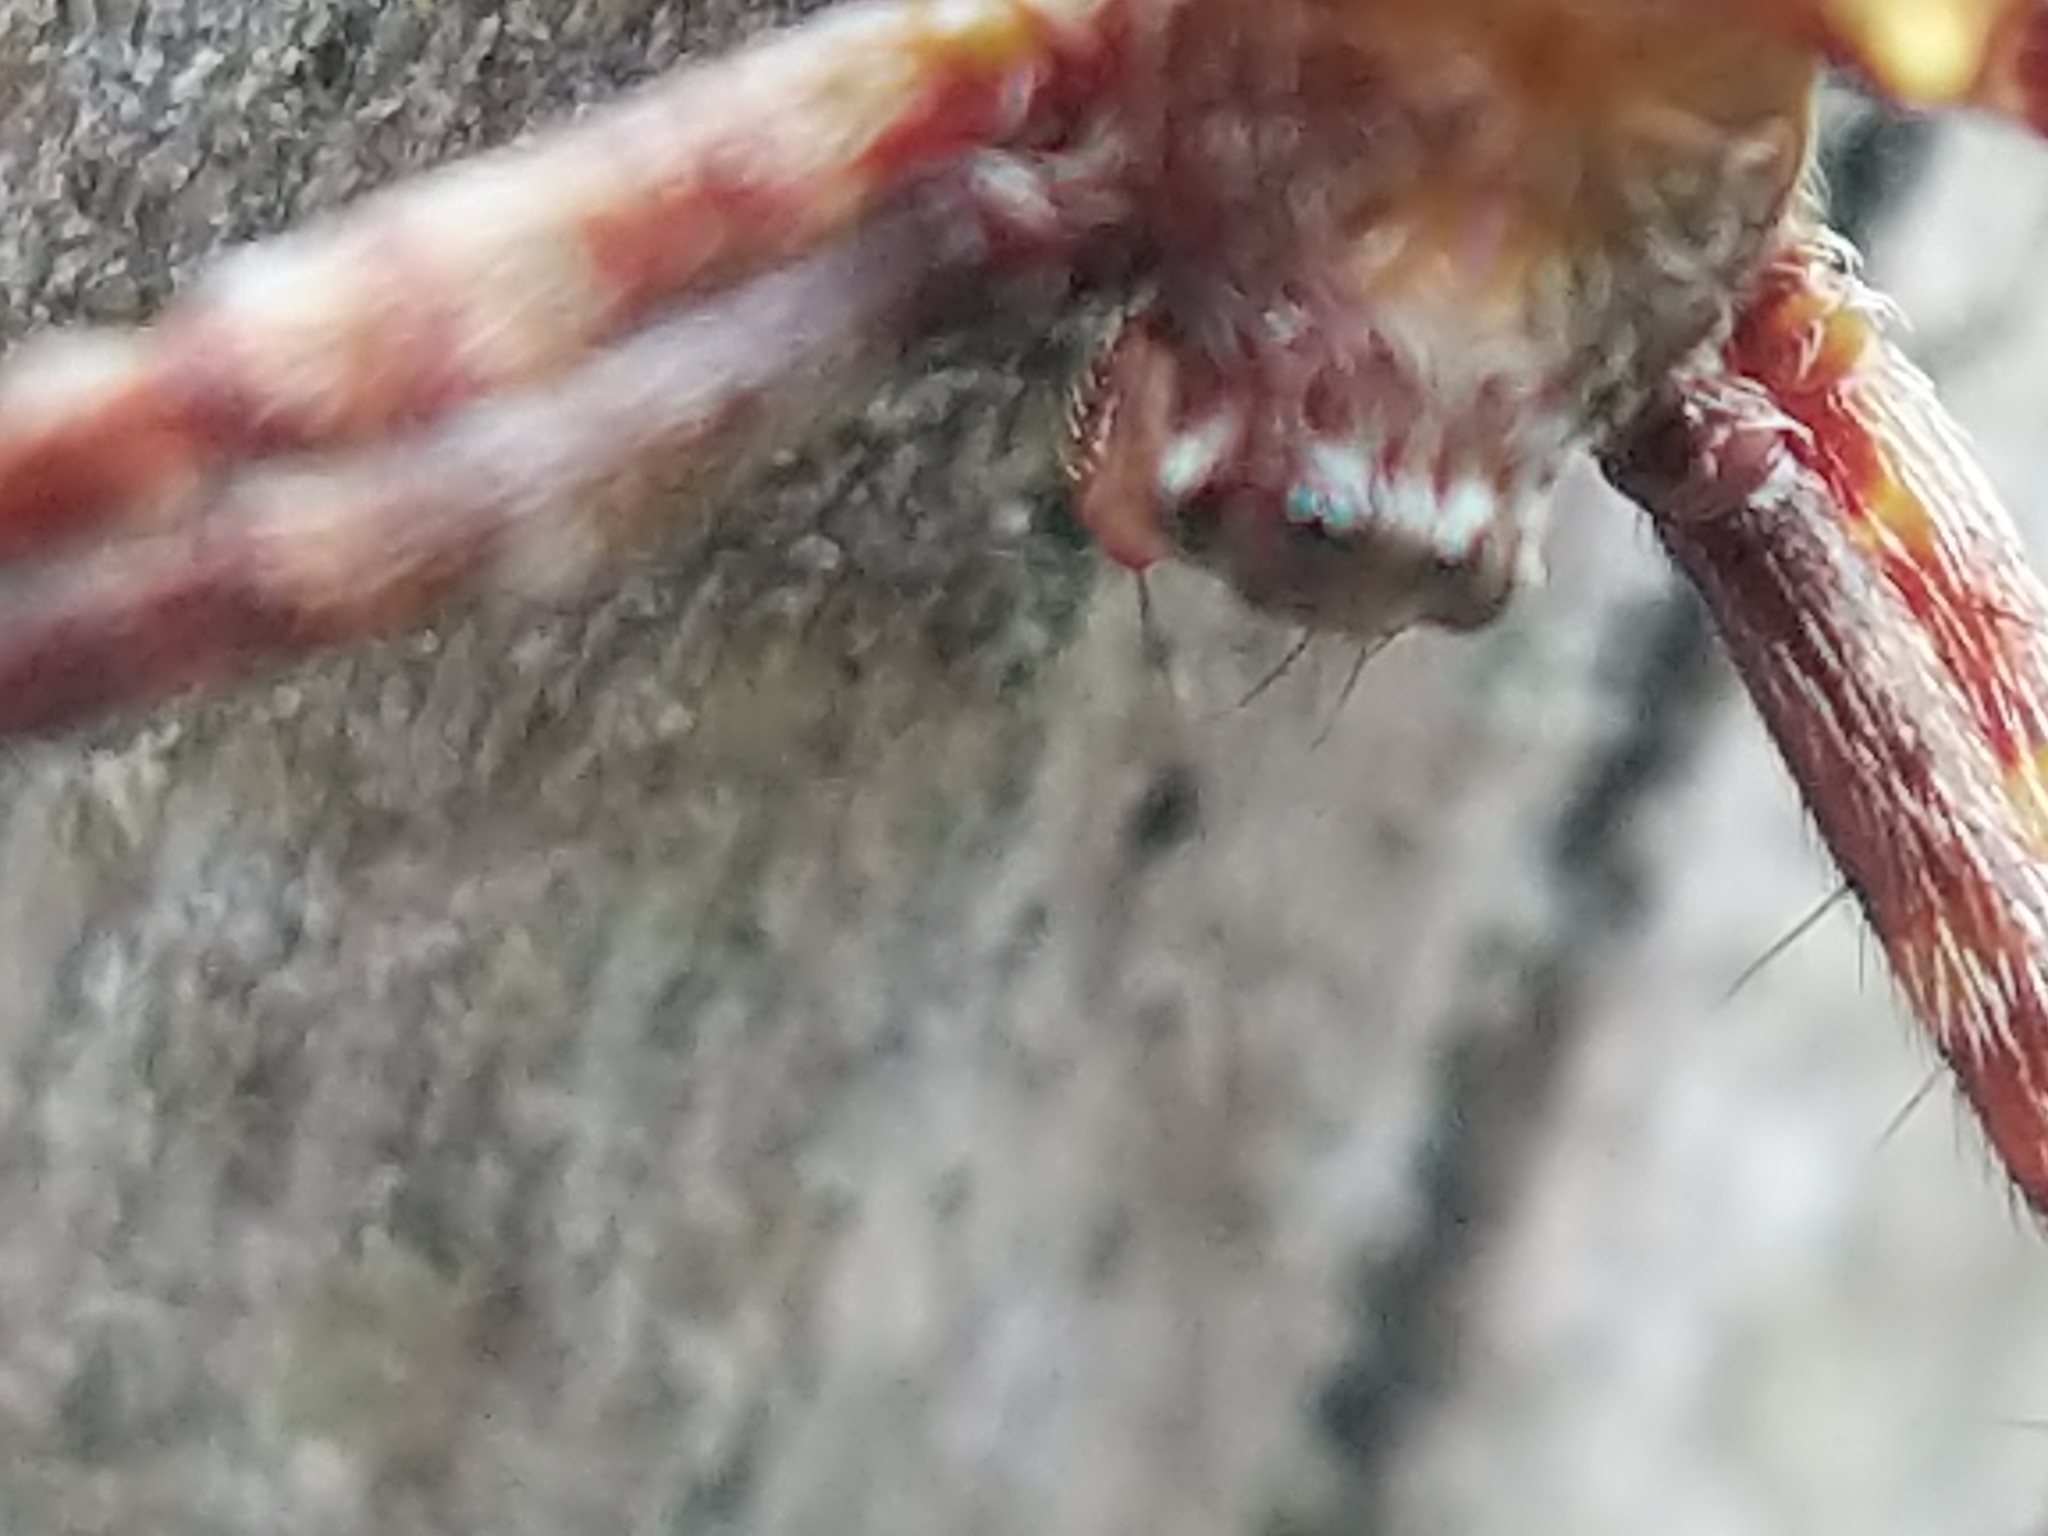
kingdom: Animalia
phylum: Arthropoda
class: Arachnida
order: Araneae
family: Araneidae
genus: Gea
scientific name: Gea heptagon
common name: Orb weavers
